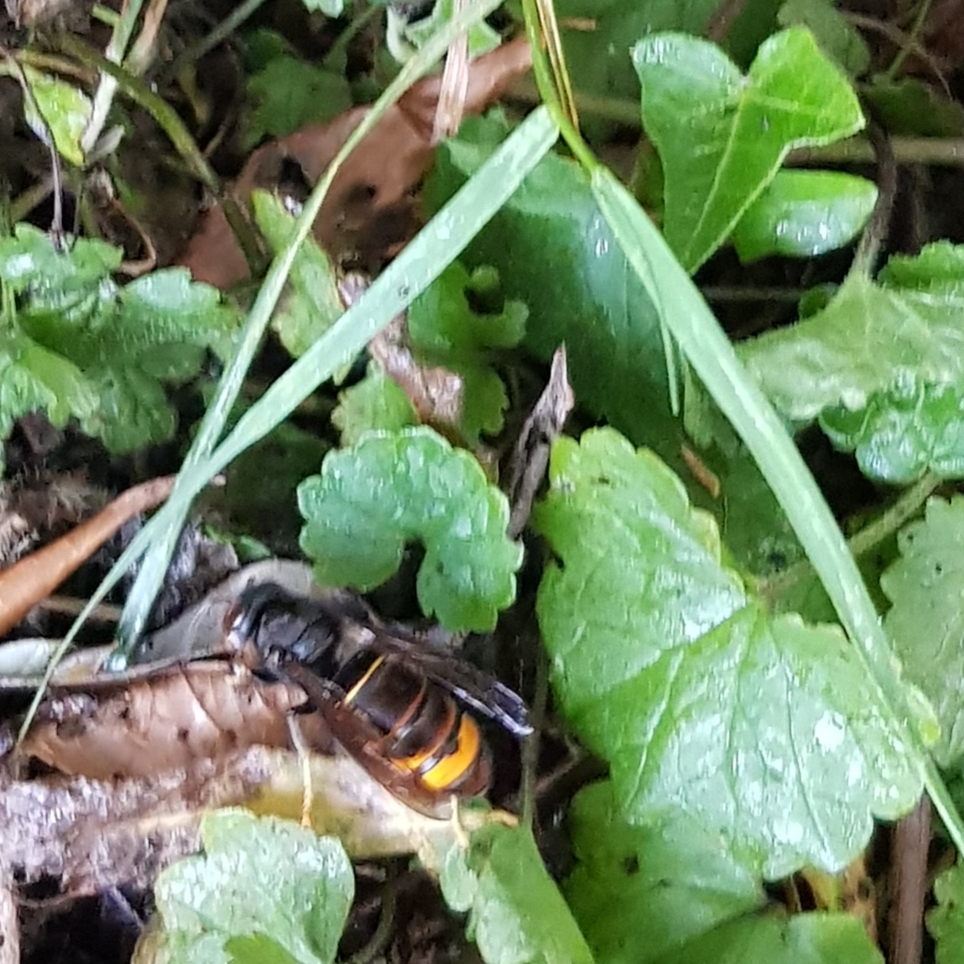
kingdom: Animalia
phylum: Arthropoda
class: Insecta
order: Hymenoptera
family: Vespidae
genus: Vespa
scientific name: Vespa velutina
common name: Asian hornet
